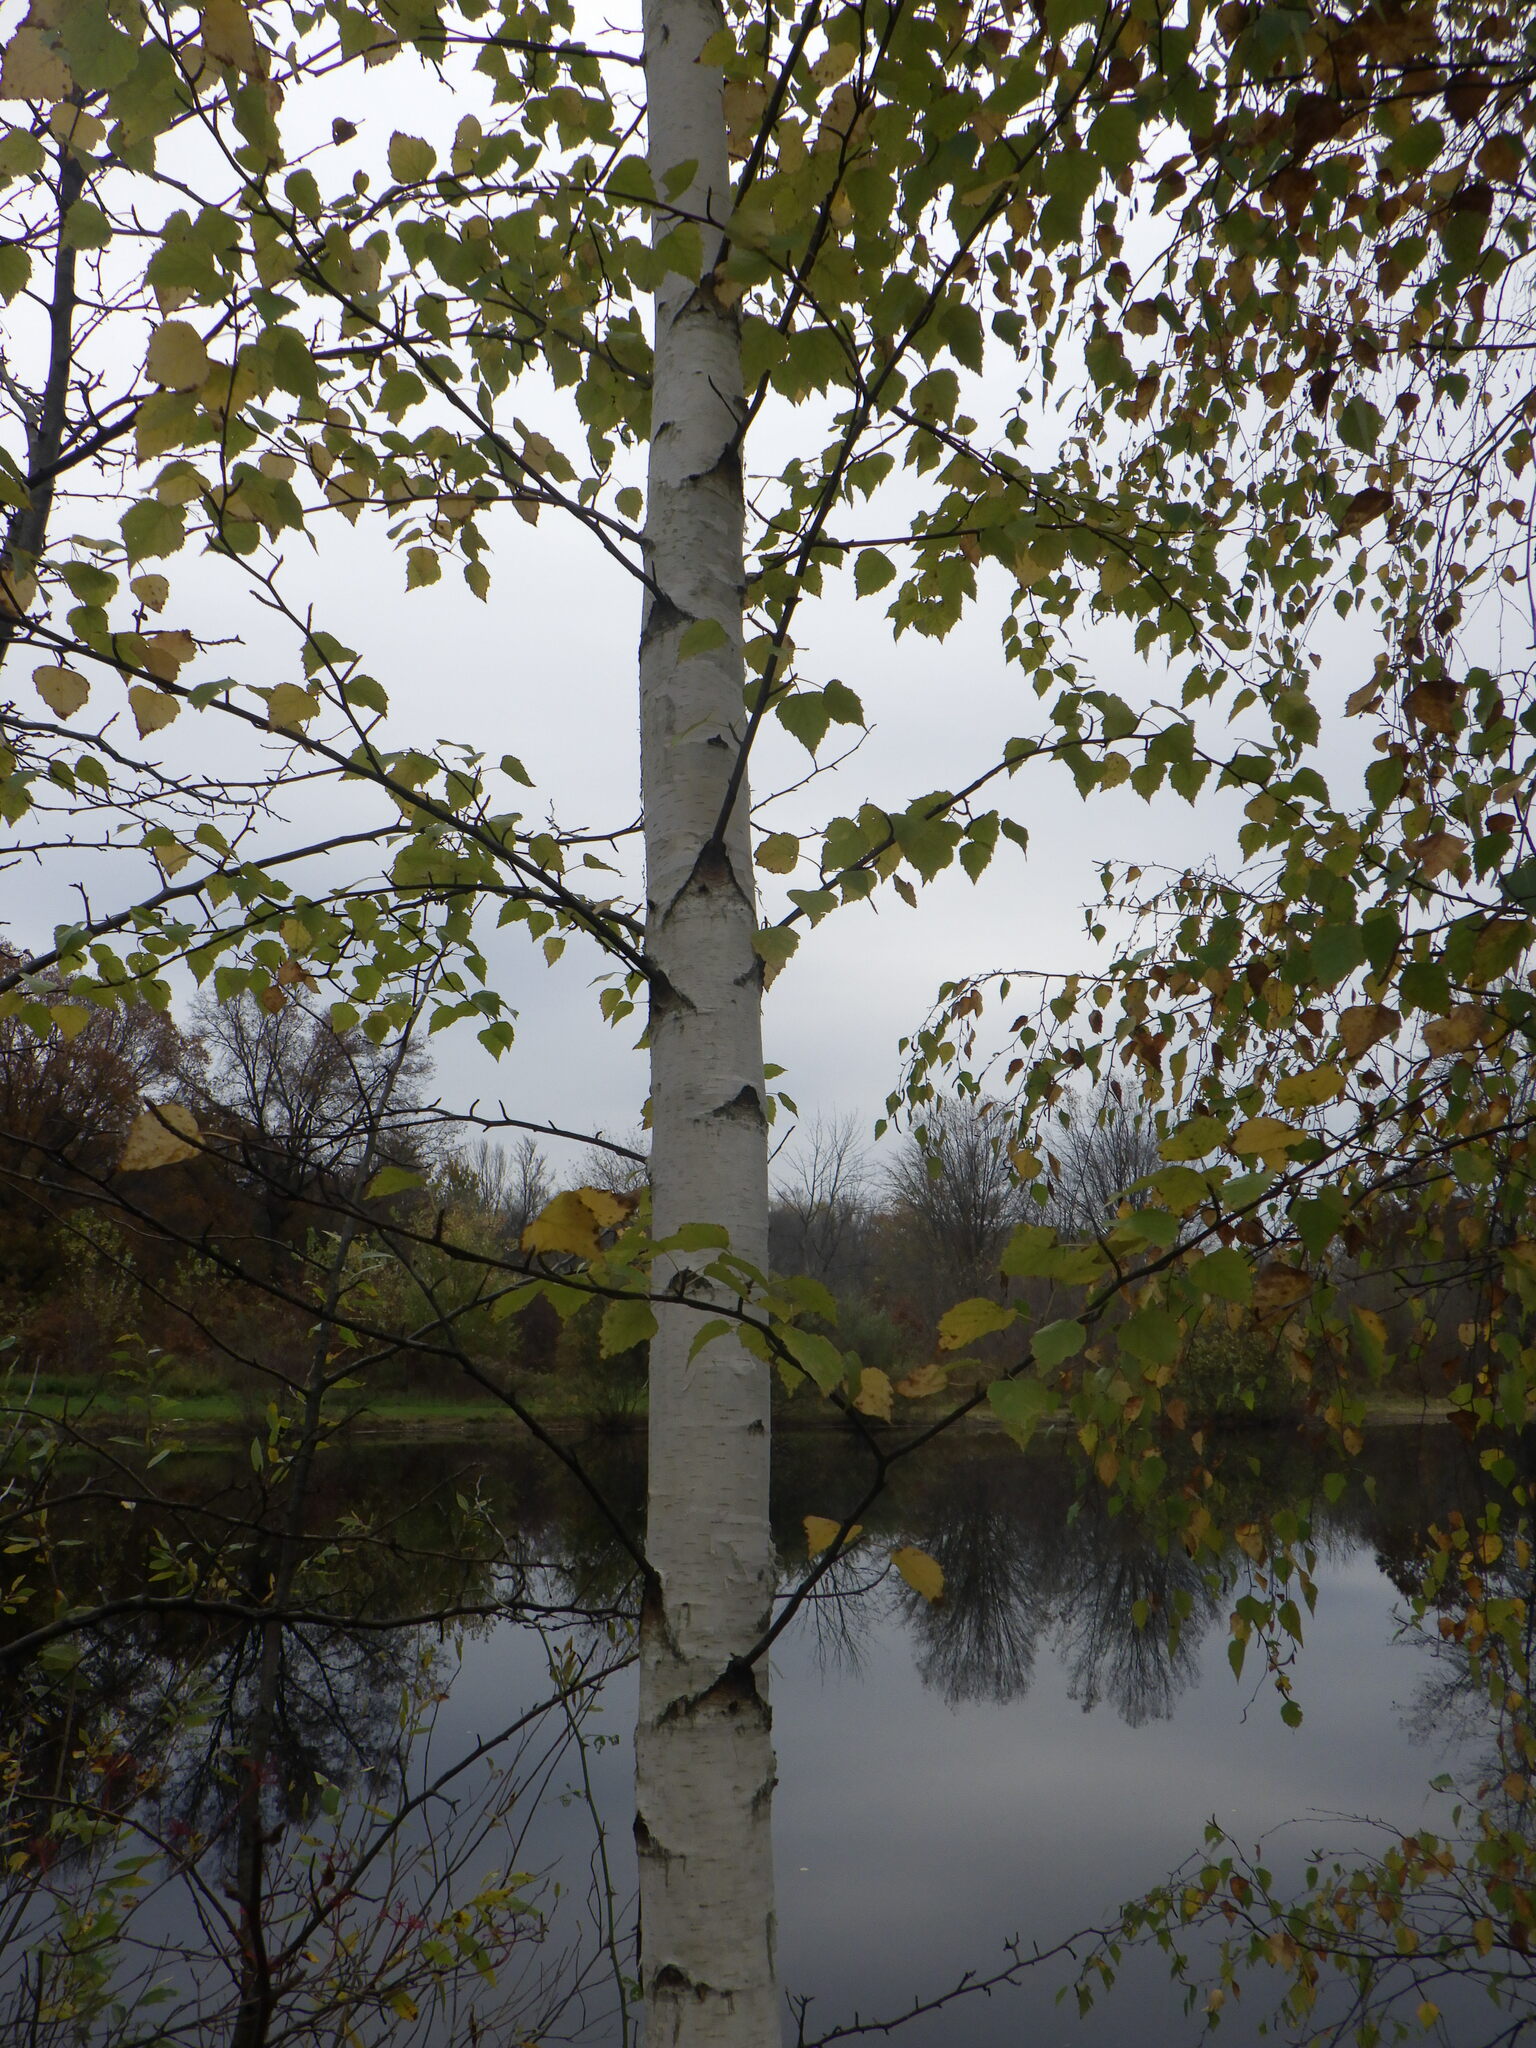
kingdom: Plantae
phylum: Tracheophyta
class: Magnoliopsida
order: Fagales
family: Betulaceae
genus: Betula
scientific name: Betula papyrifera
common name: Paper birch
